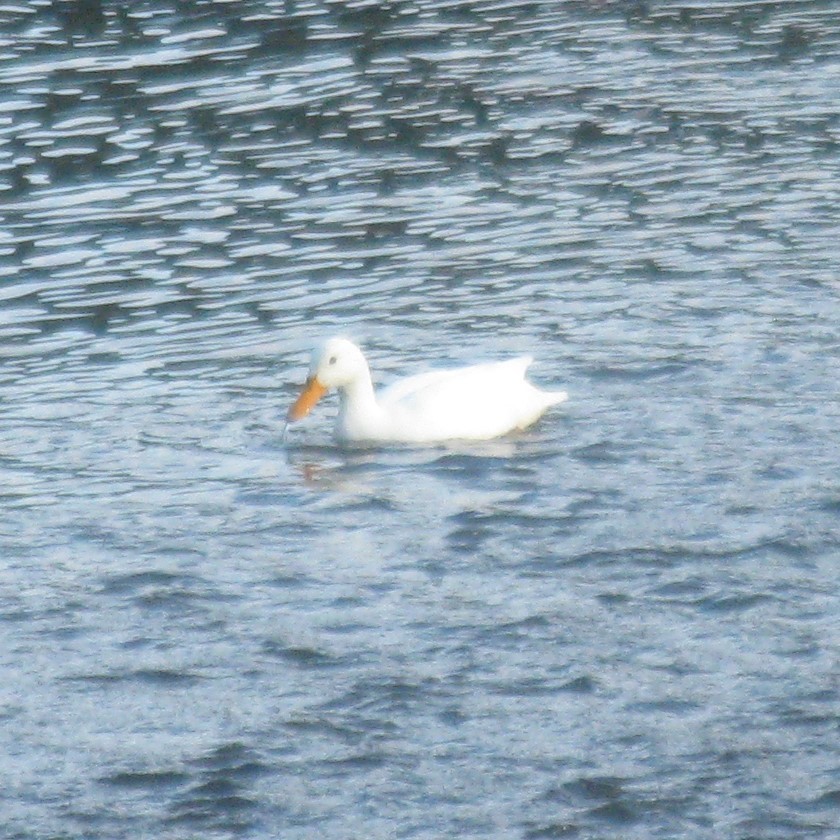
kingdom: Animalia
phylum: Chordata
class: Aves
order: Anseriformes
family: Anatidae
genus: Anas
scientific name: Anas platyrhynchos
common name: Mallard
